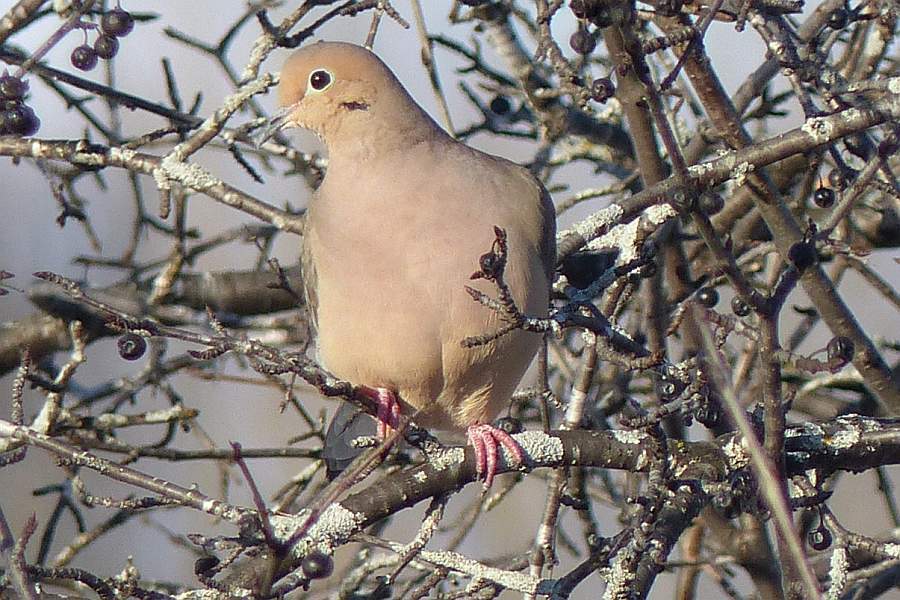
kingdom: Animalia
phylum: Chordata
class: Aves
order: Columbiformes
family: Columbidae
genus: Zenaida
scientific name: Zenaida macroura
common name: Mourning dove
